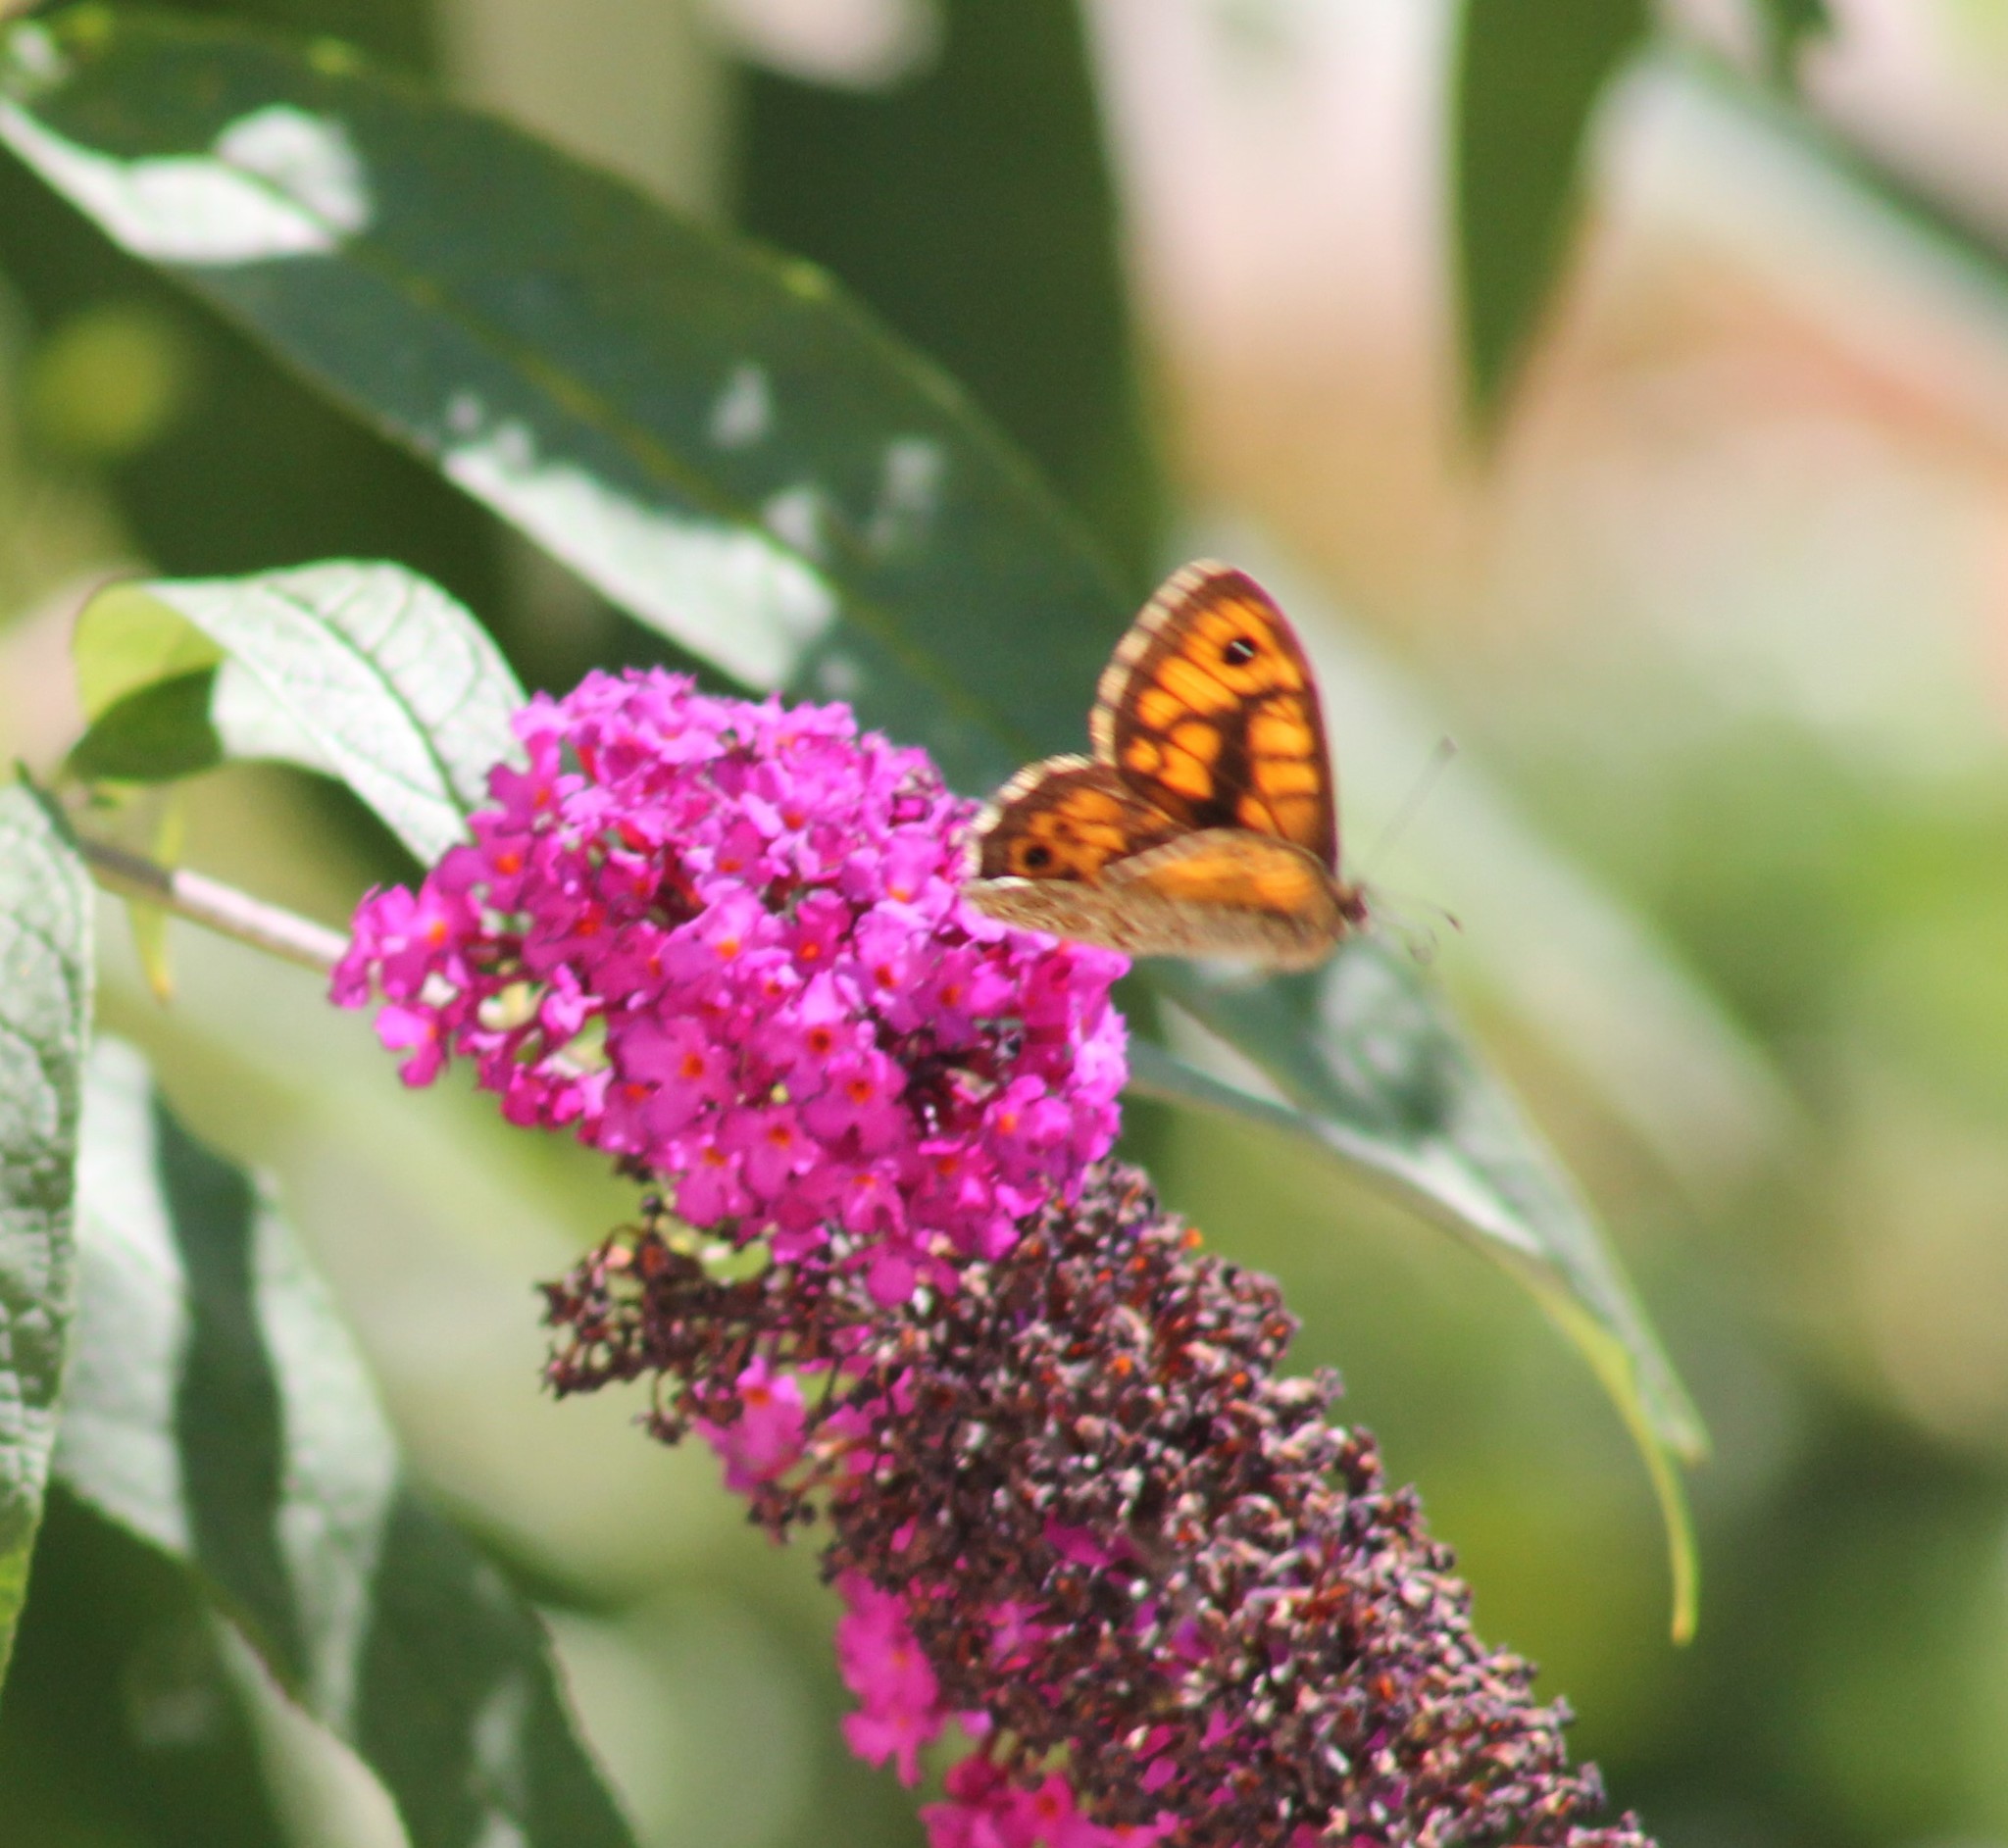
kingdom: Animalia
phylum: Arthropoda
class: Insecta
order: Lepidoptera
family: Nymphalidae
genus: Pararge
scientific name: Pararge Lasiommata megera
